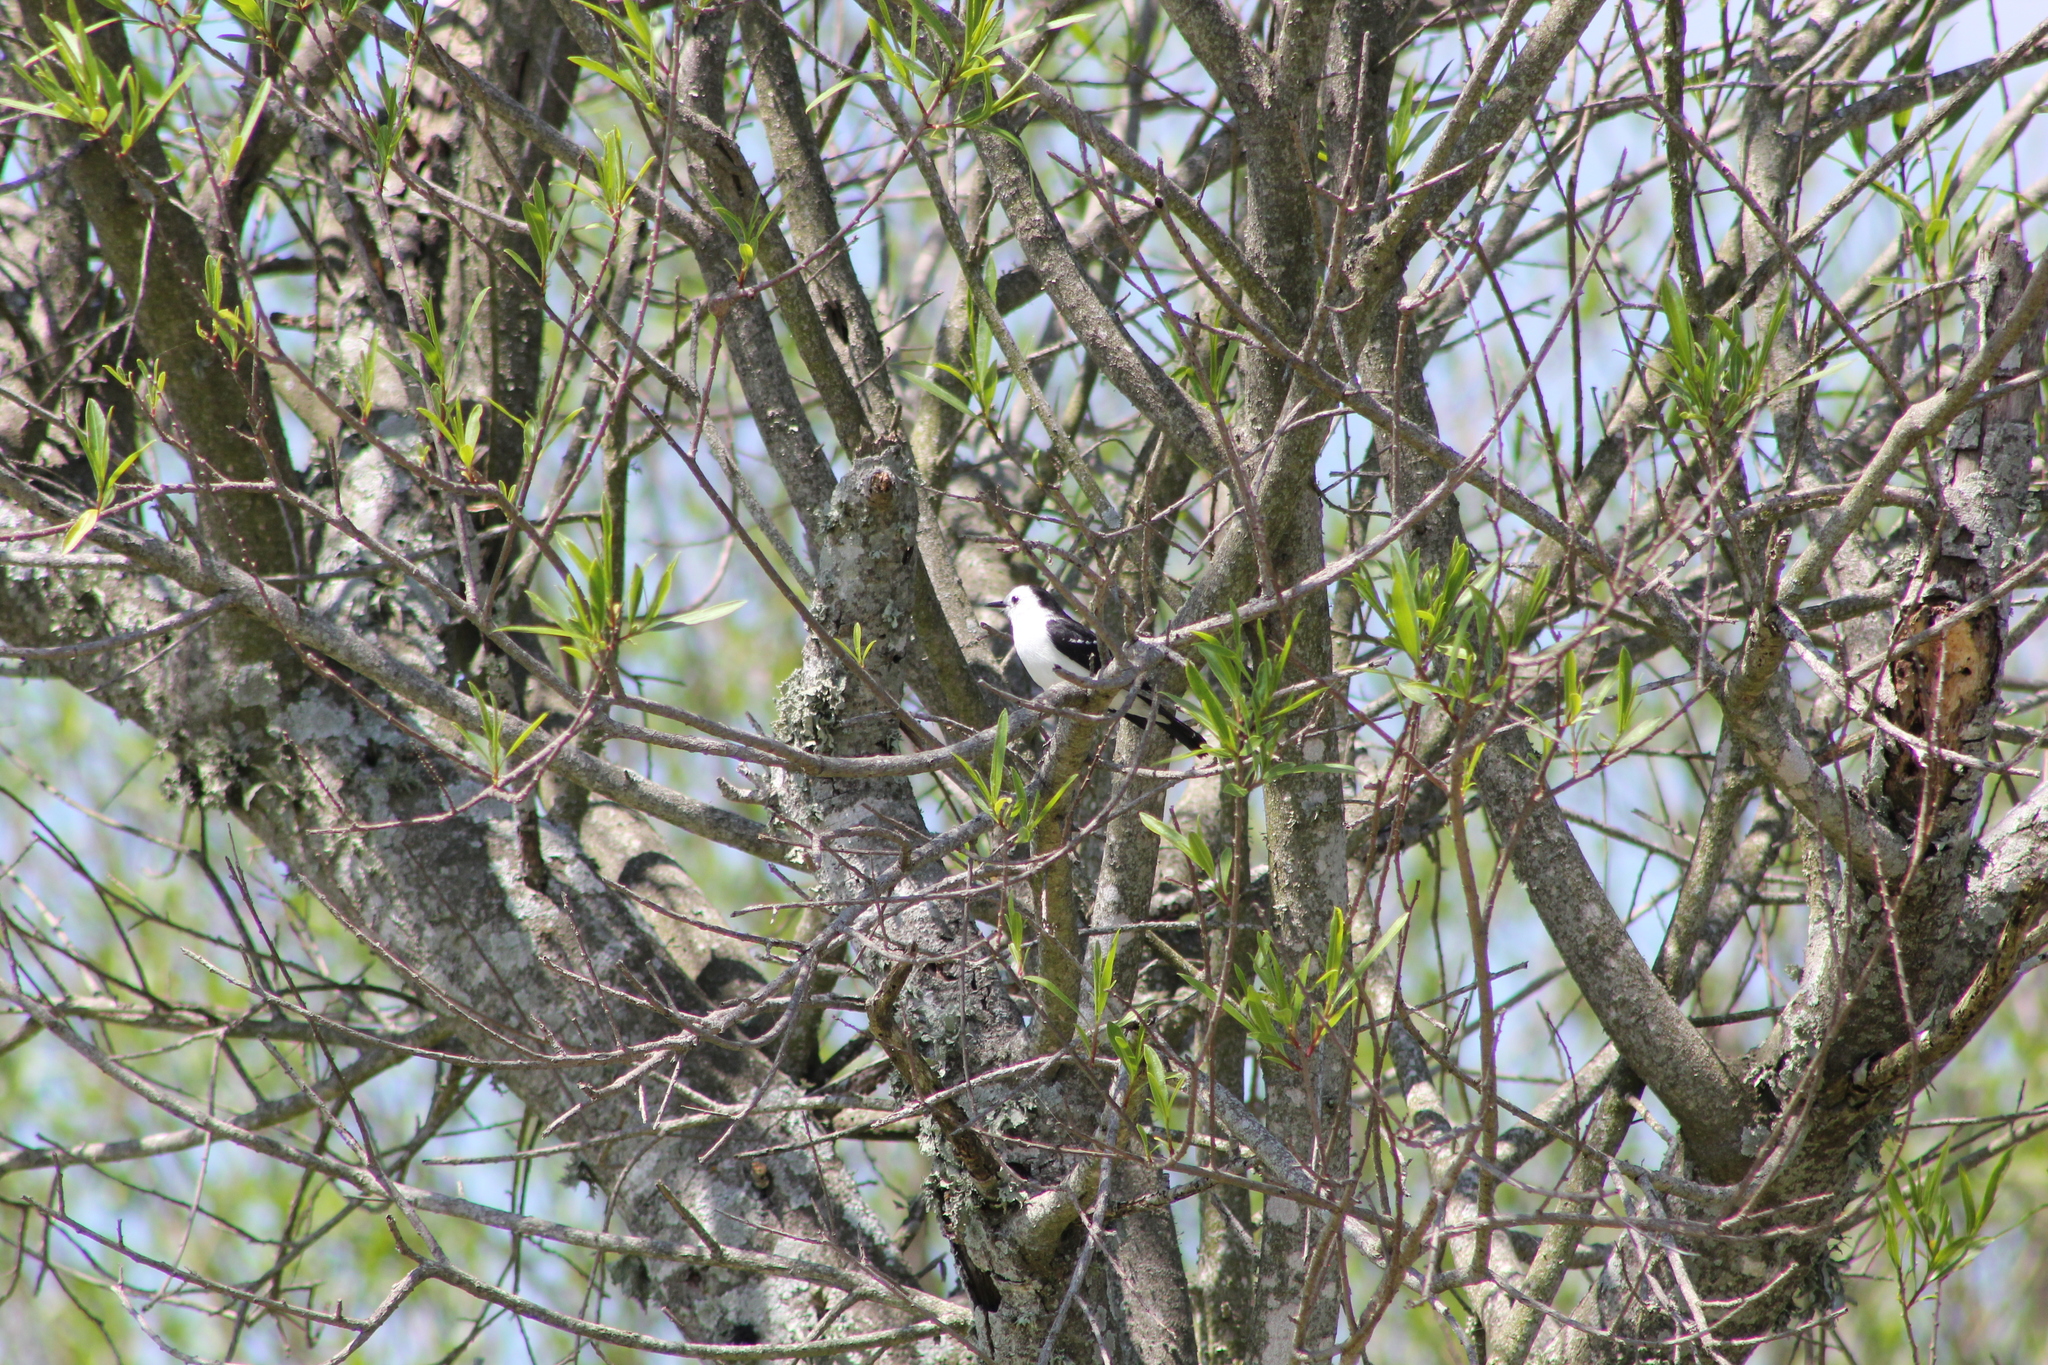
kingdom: Animalia
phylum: Chordata
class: Aves
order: Passeriformes
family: Tyrannidae
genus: Fluvicola
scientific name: Fluvicola pica
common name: Pied water-tyrant
